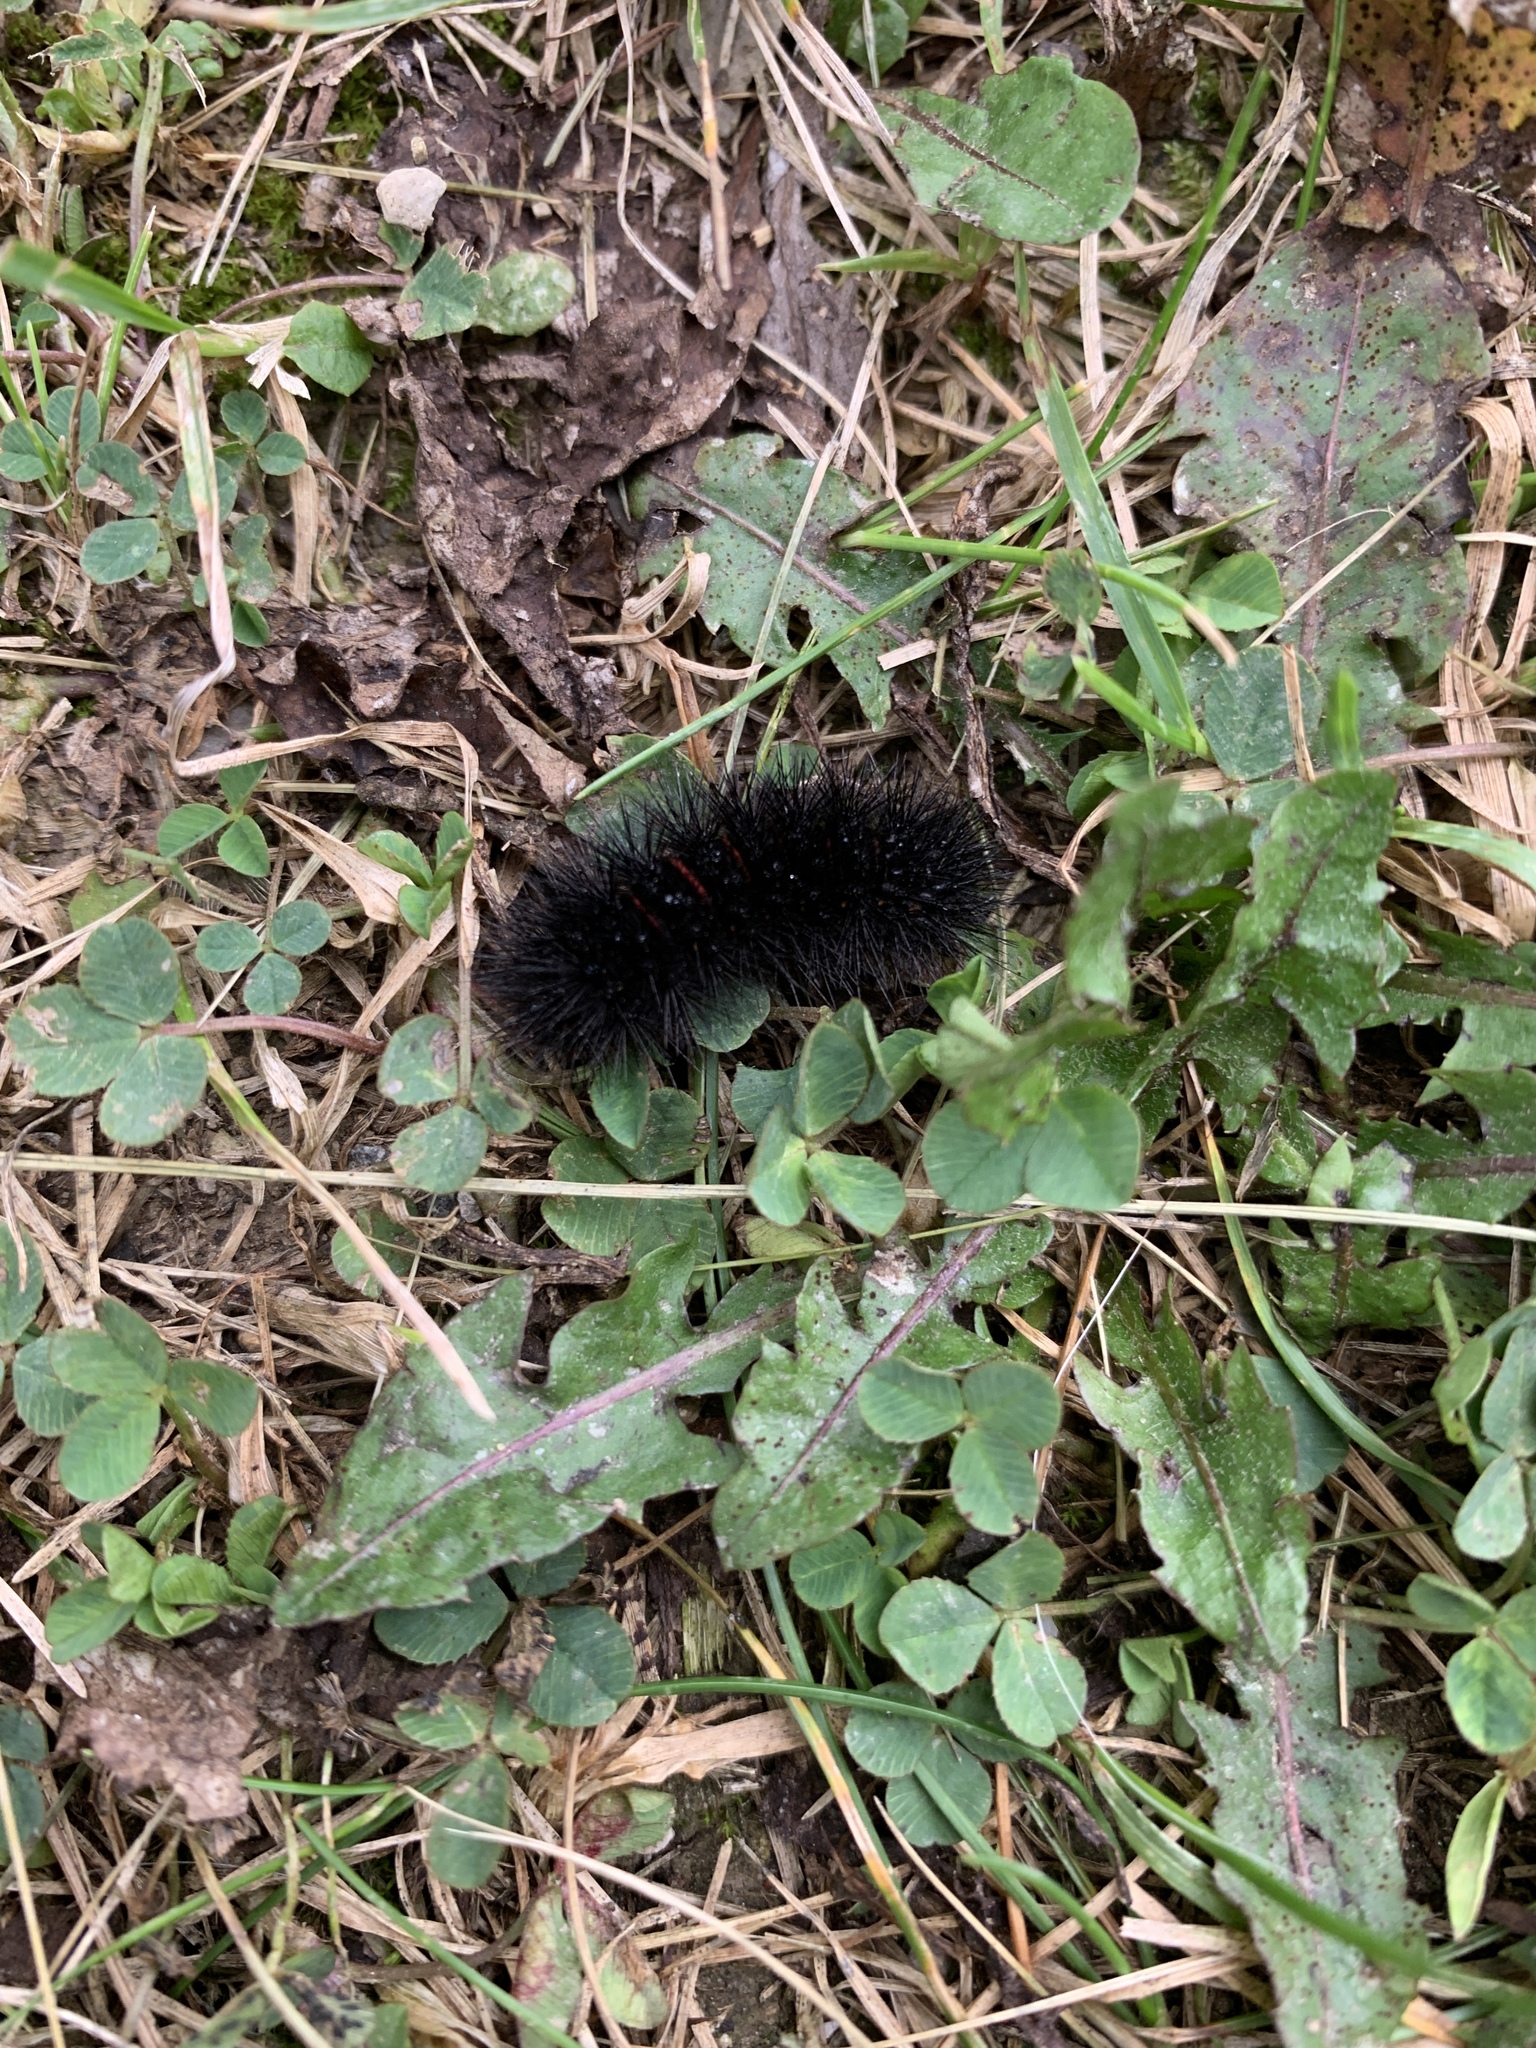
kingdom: Animalia
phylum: Arthropoda
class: Insecta
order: Lepidoptera
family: Erebidae
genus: Hypercompe
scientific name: Hypercompe scribonia
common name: Giant leopard moth
